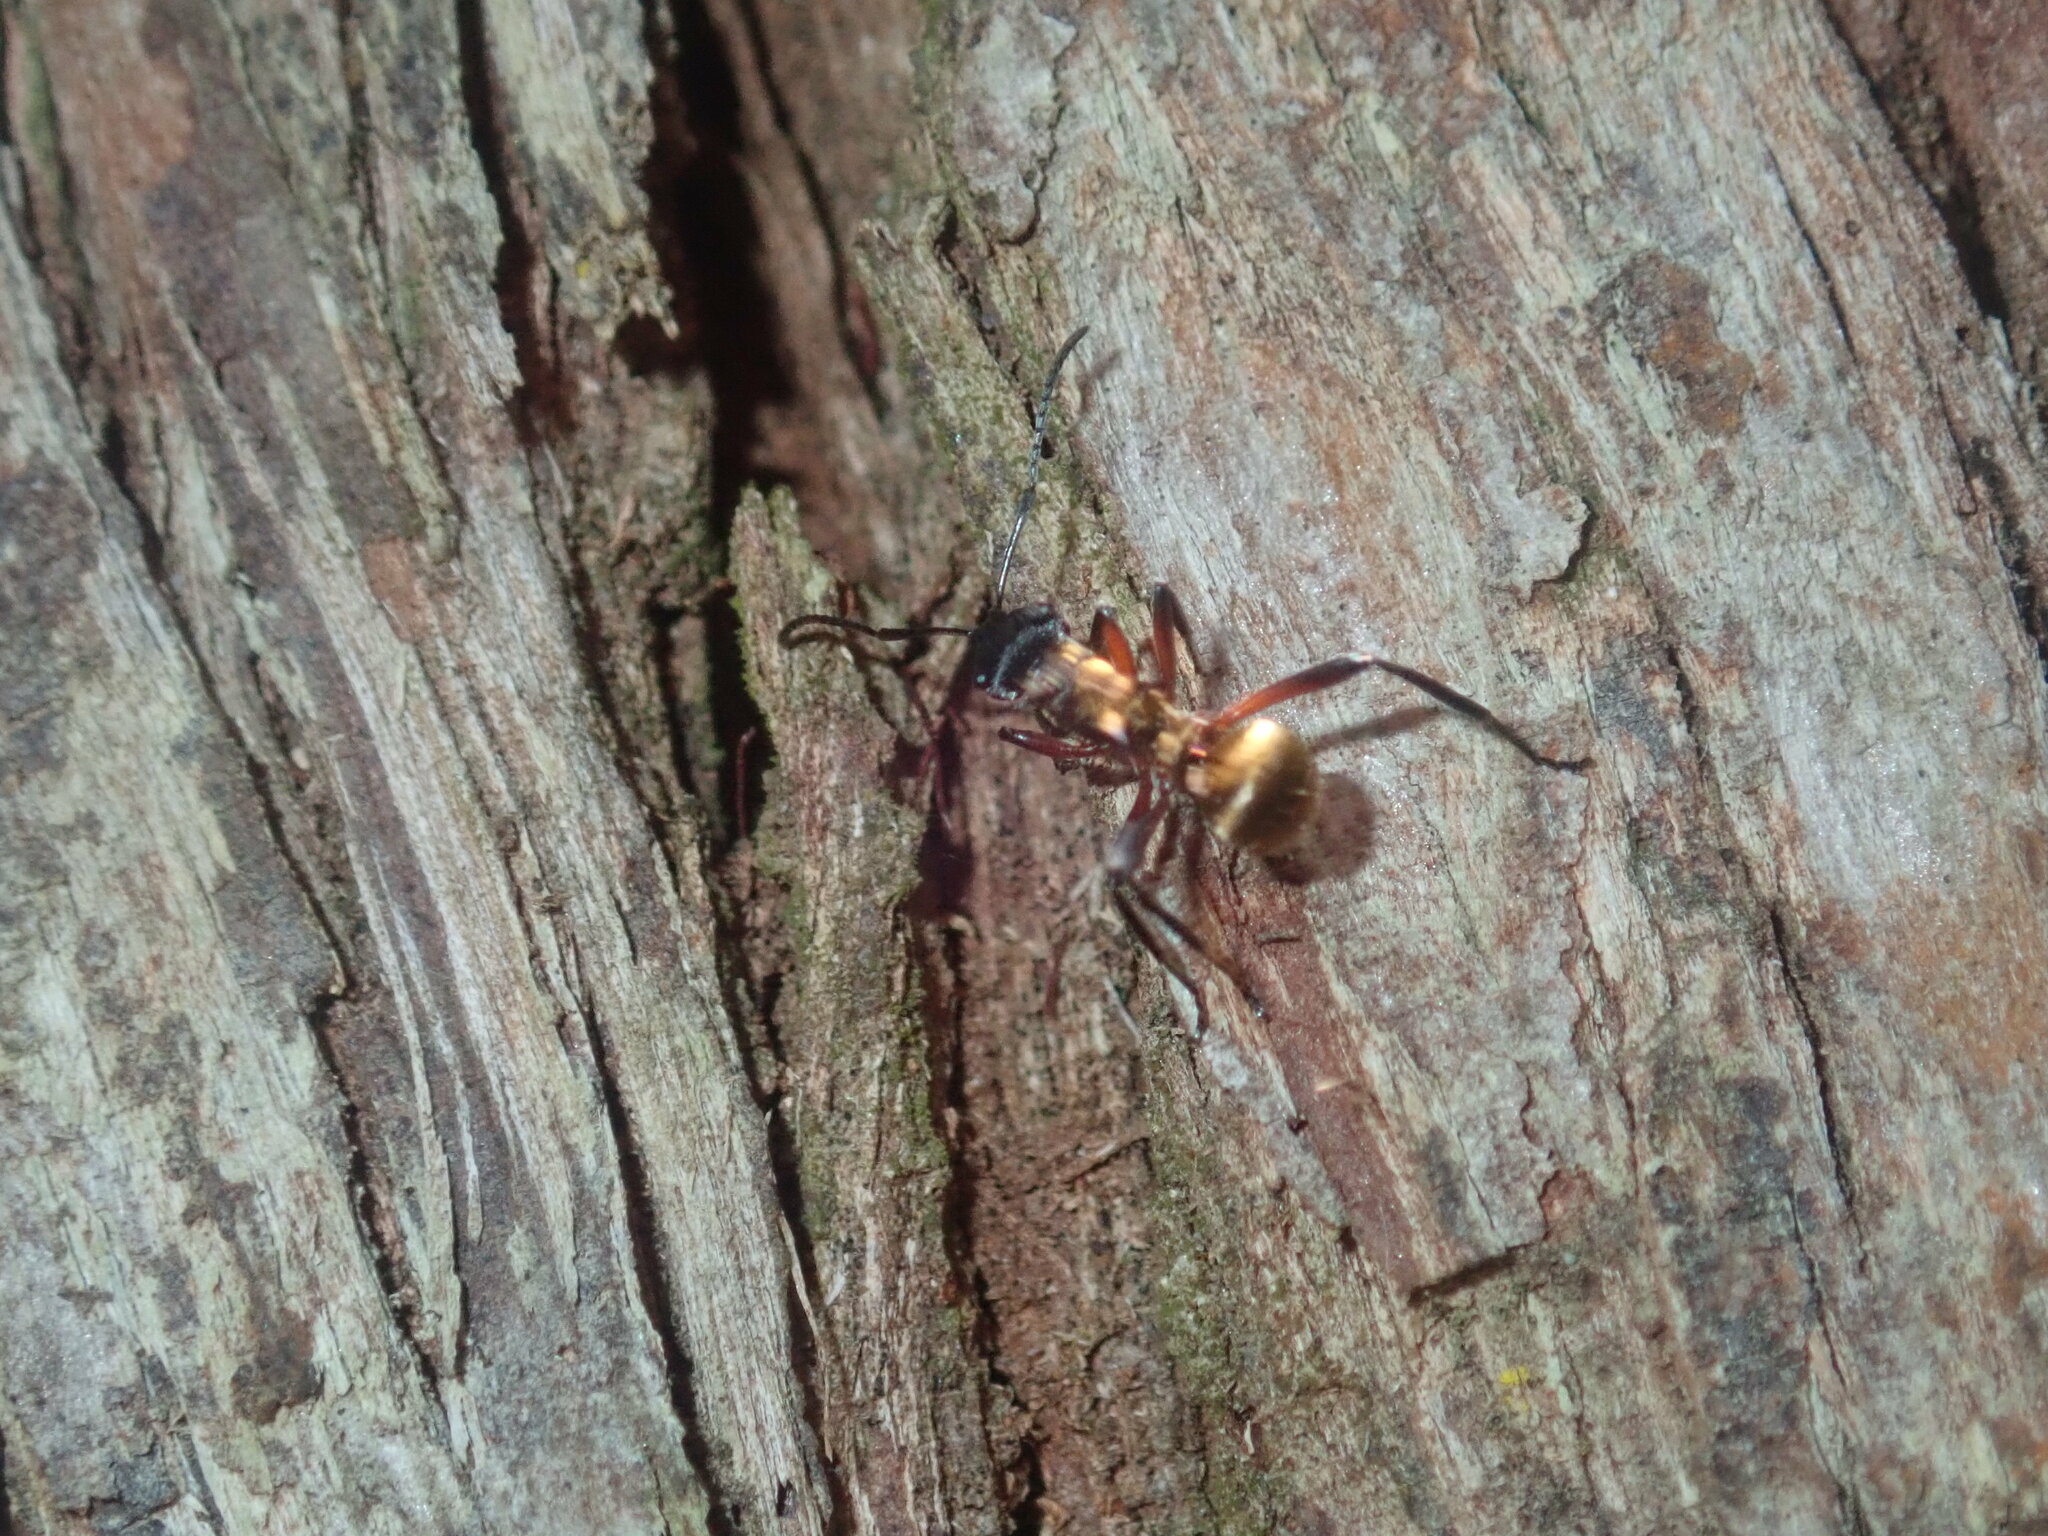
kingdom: Animalia
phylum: Arthropoda
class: Insecta
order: Hymenoptera
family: Formicidae
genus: Polyrhachis
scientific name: Polyrhachis rufifemur
